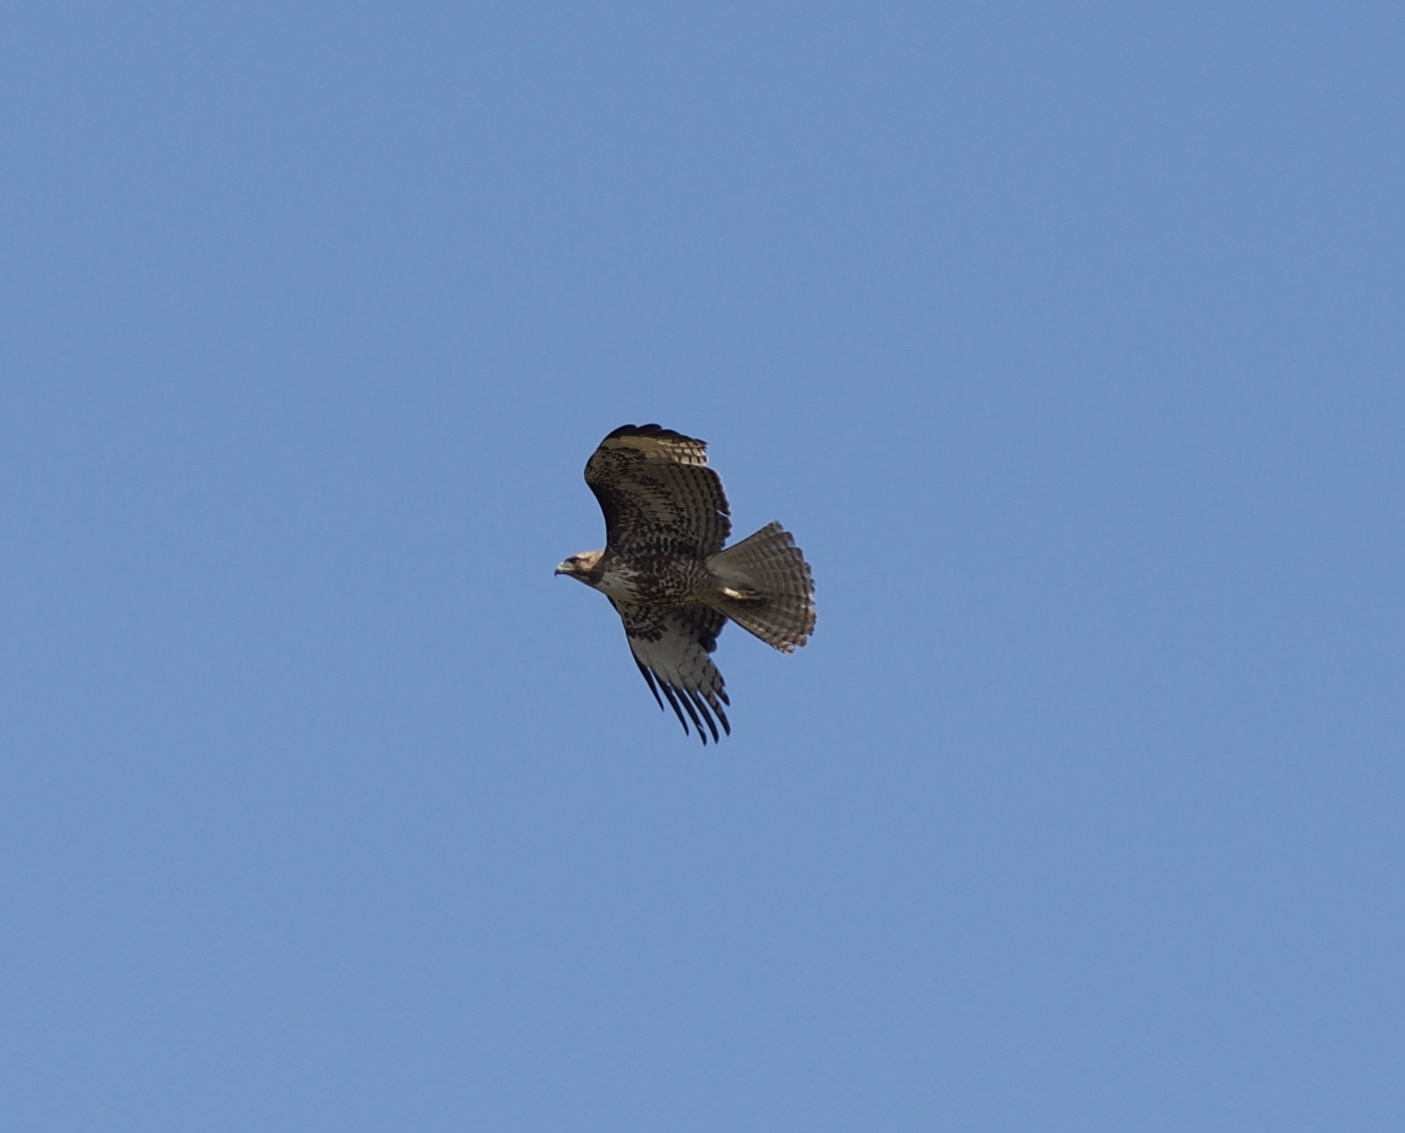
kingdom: Animalia
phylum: Chordata
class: Aves
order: Accipitriformes
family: Accipitridae
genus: Buteo
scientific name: Buteo jamaicensis
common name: Red-tailed hawk
